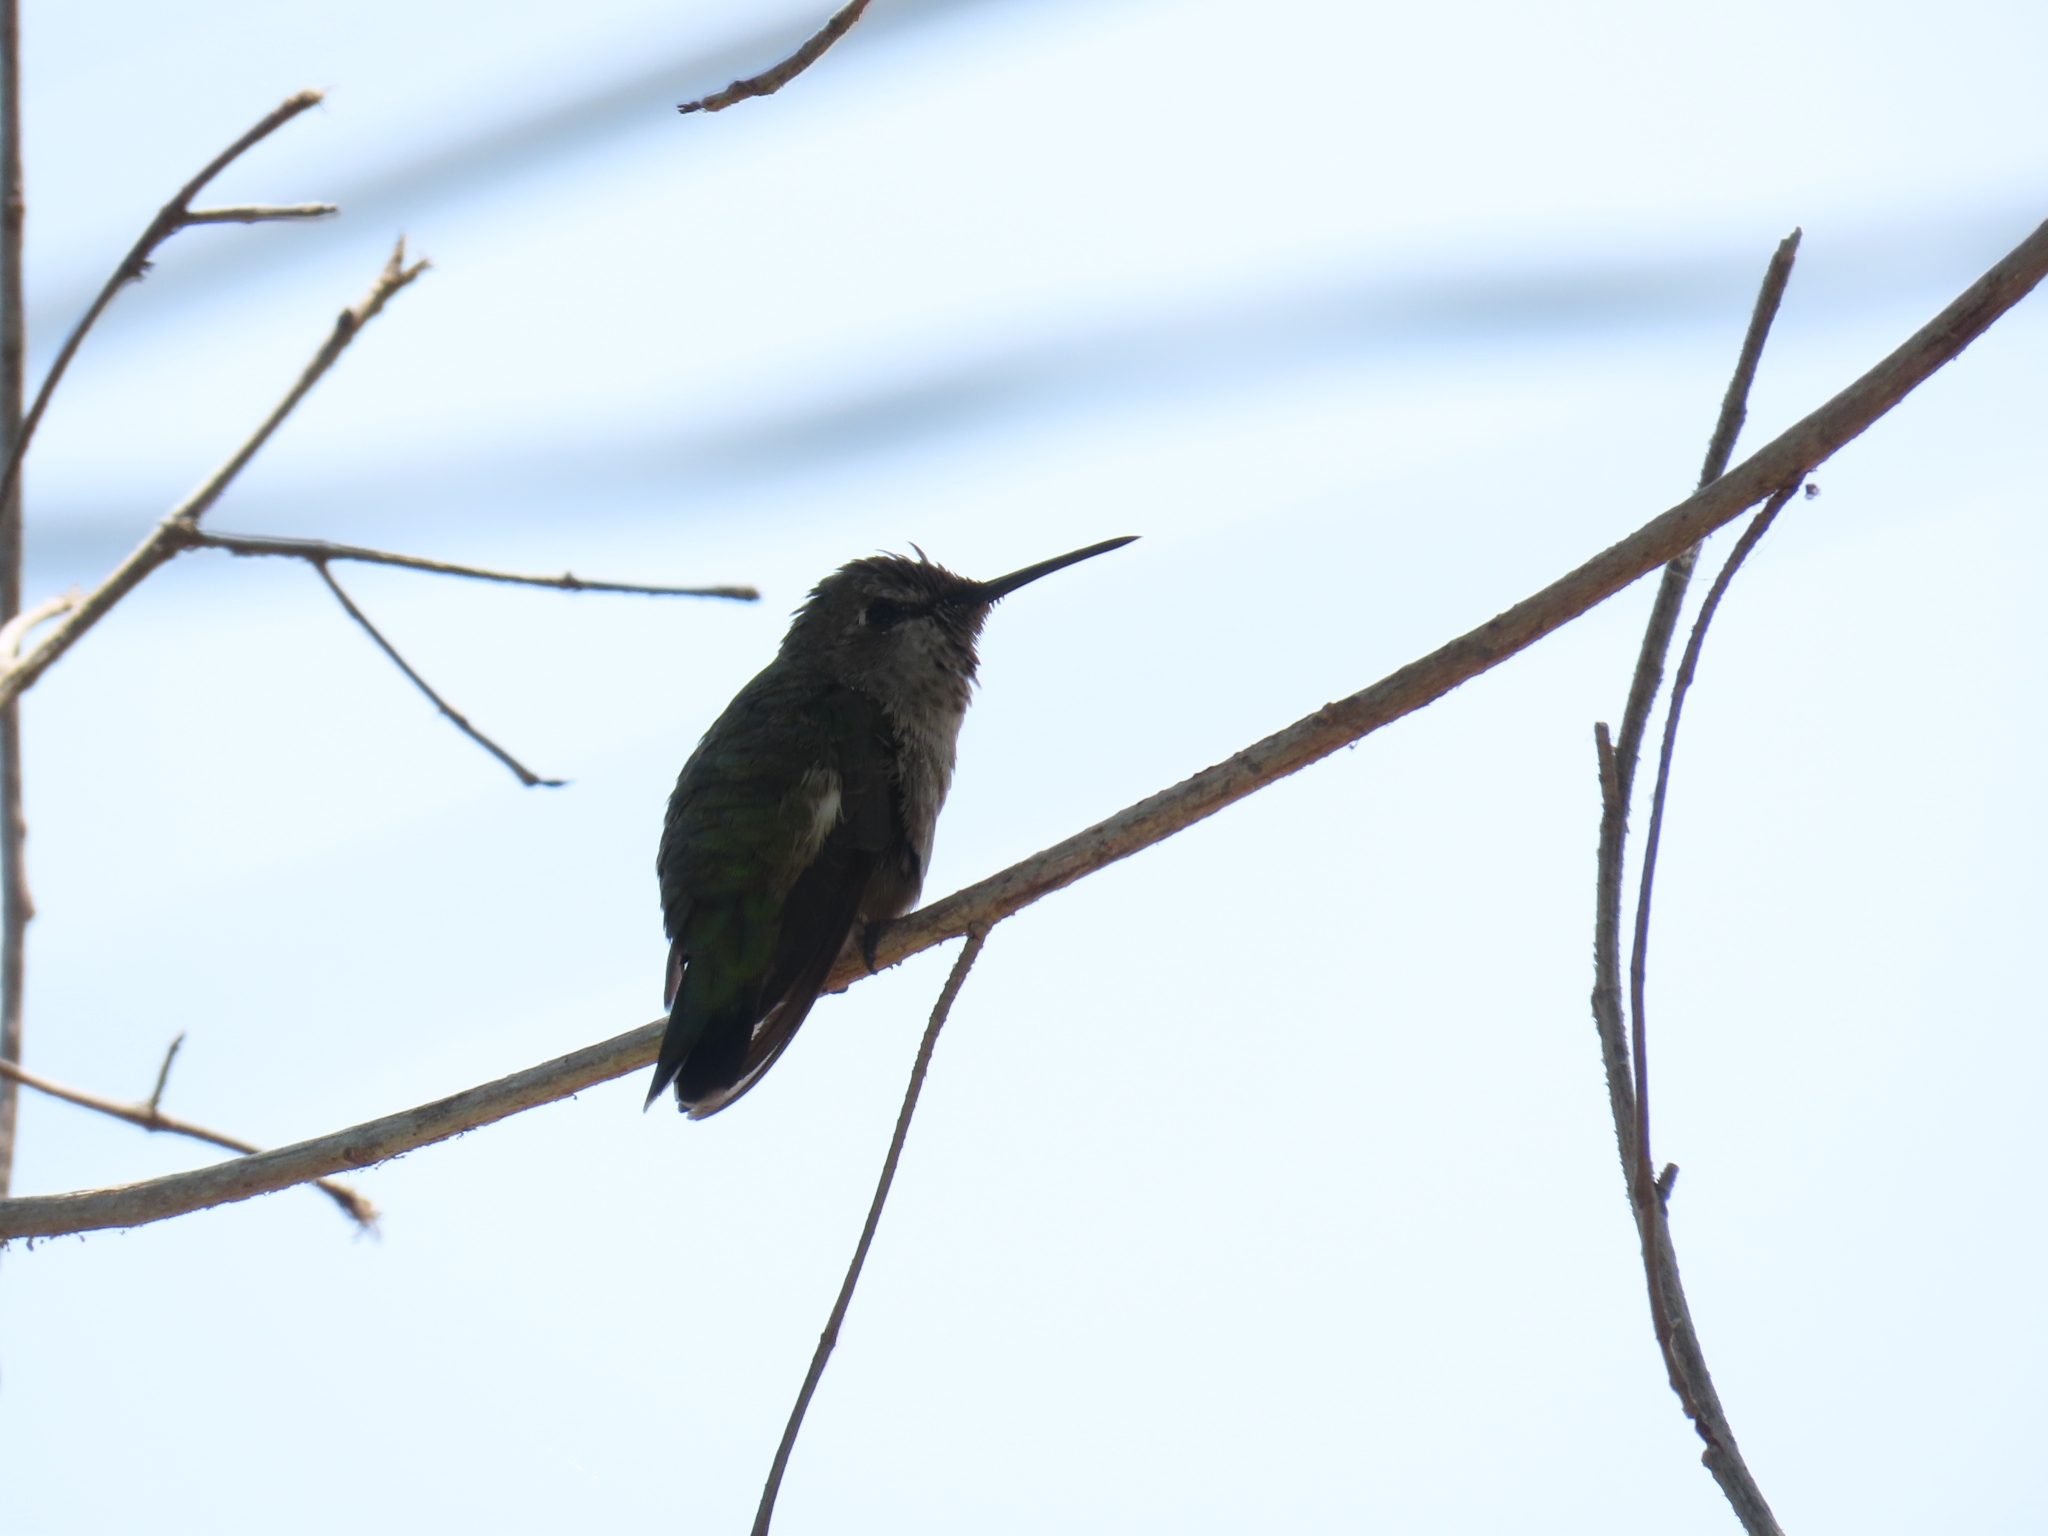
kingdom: Animalia
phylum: Chordata
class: Aves
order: Apodiformes
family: Trochilidae
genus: Calypte
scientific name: Calypte anna
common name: Anna's hummingbird
